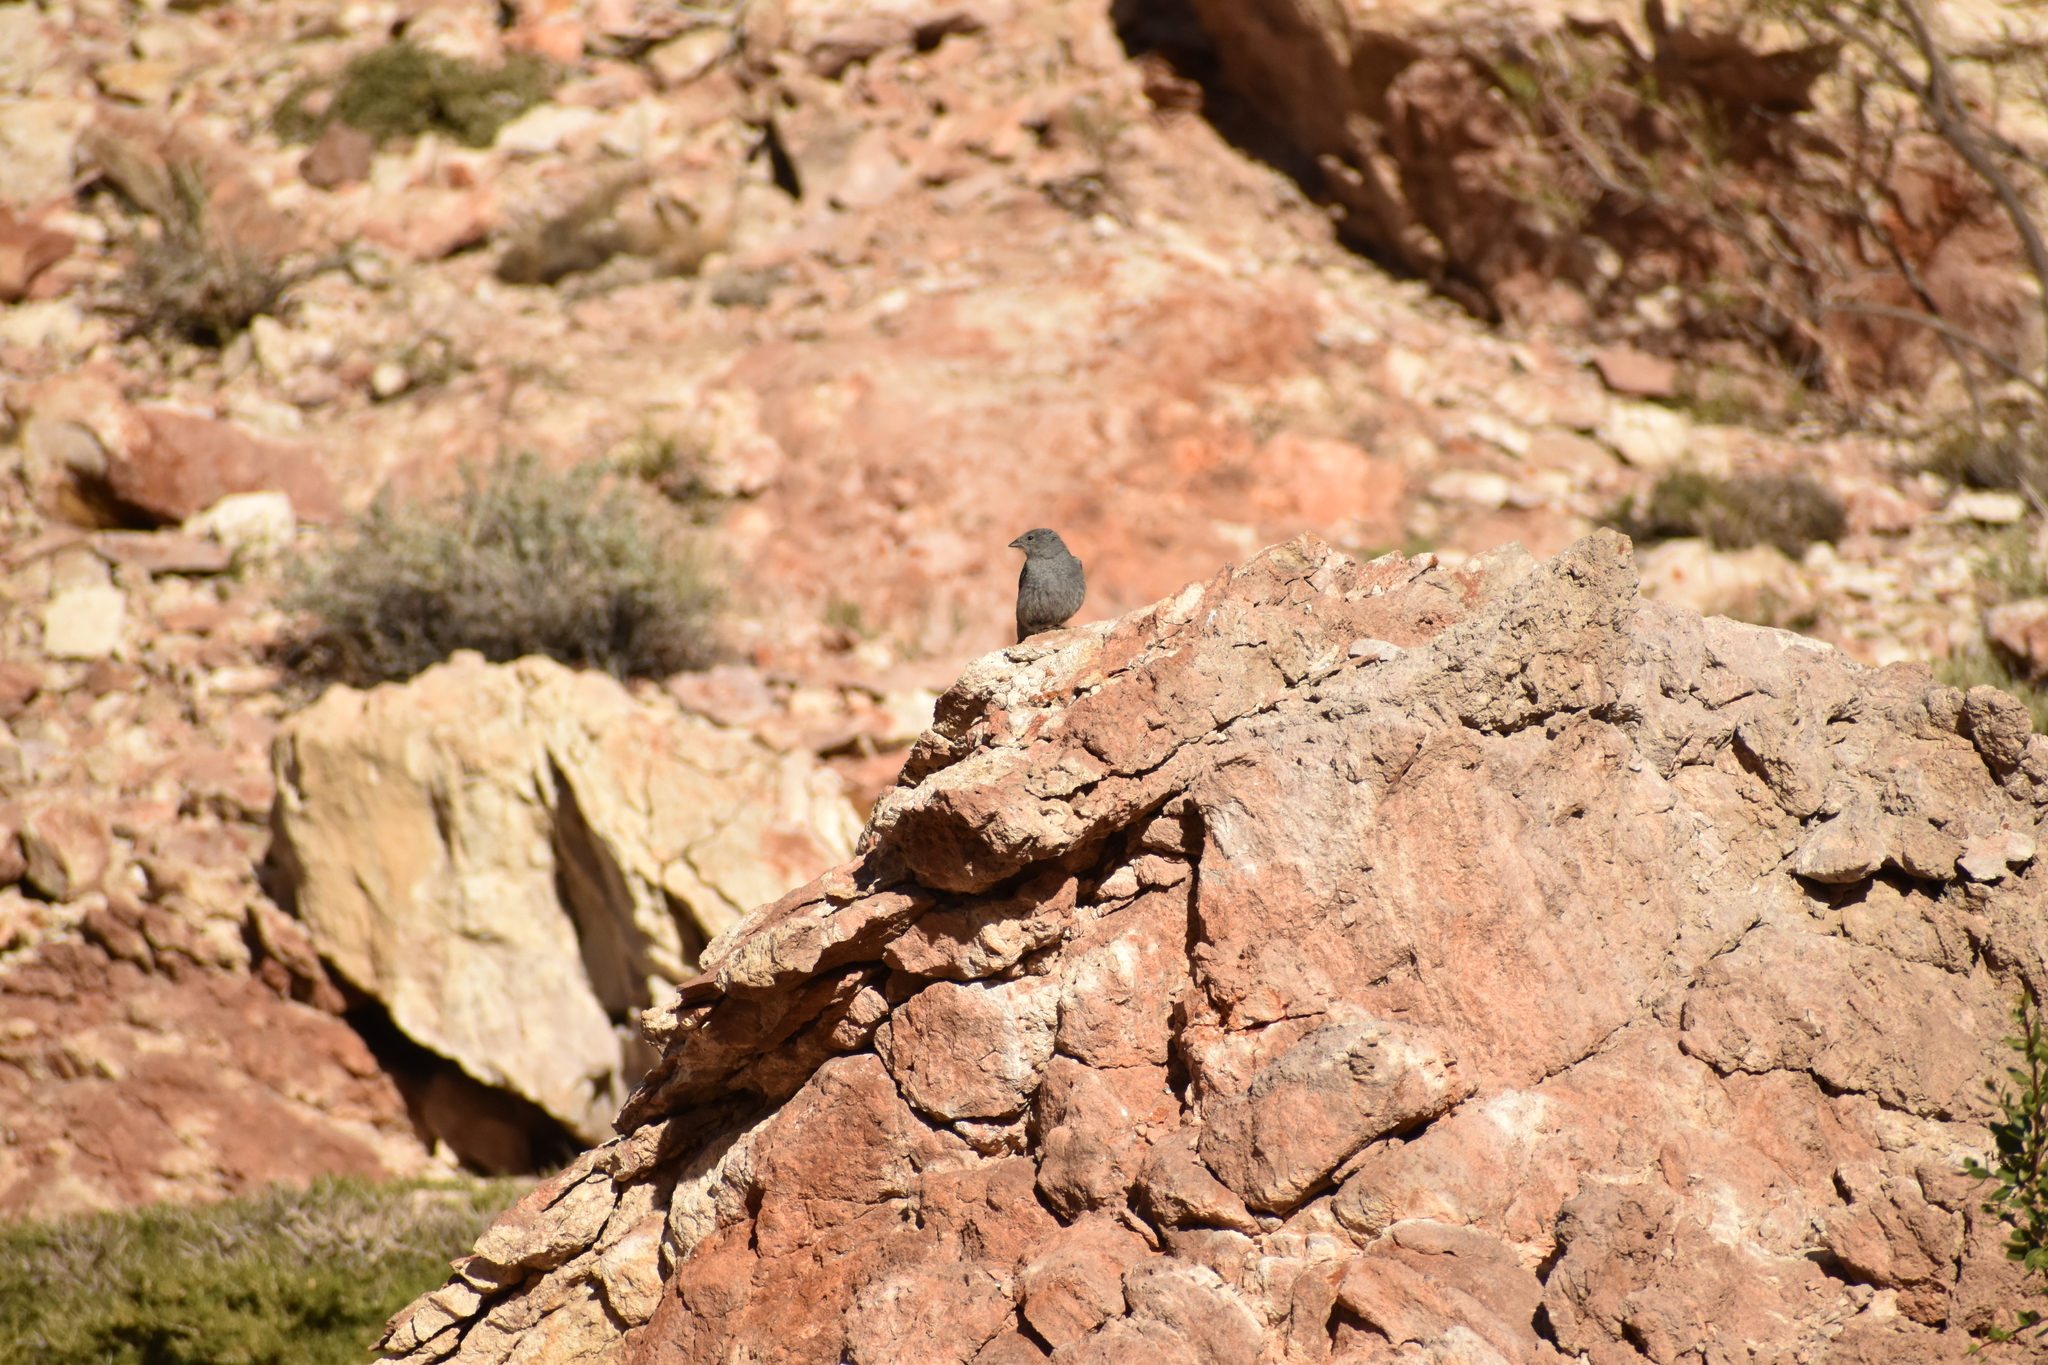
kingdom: Animalia
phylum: Chordata
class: Aves
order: Passeriformes
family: Thraupidae
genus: Geospizopsis
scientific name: Geospizopsis unicolor
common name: Plumbeous sierra-finch
